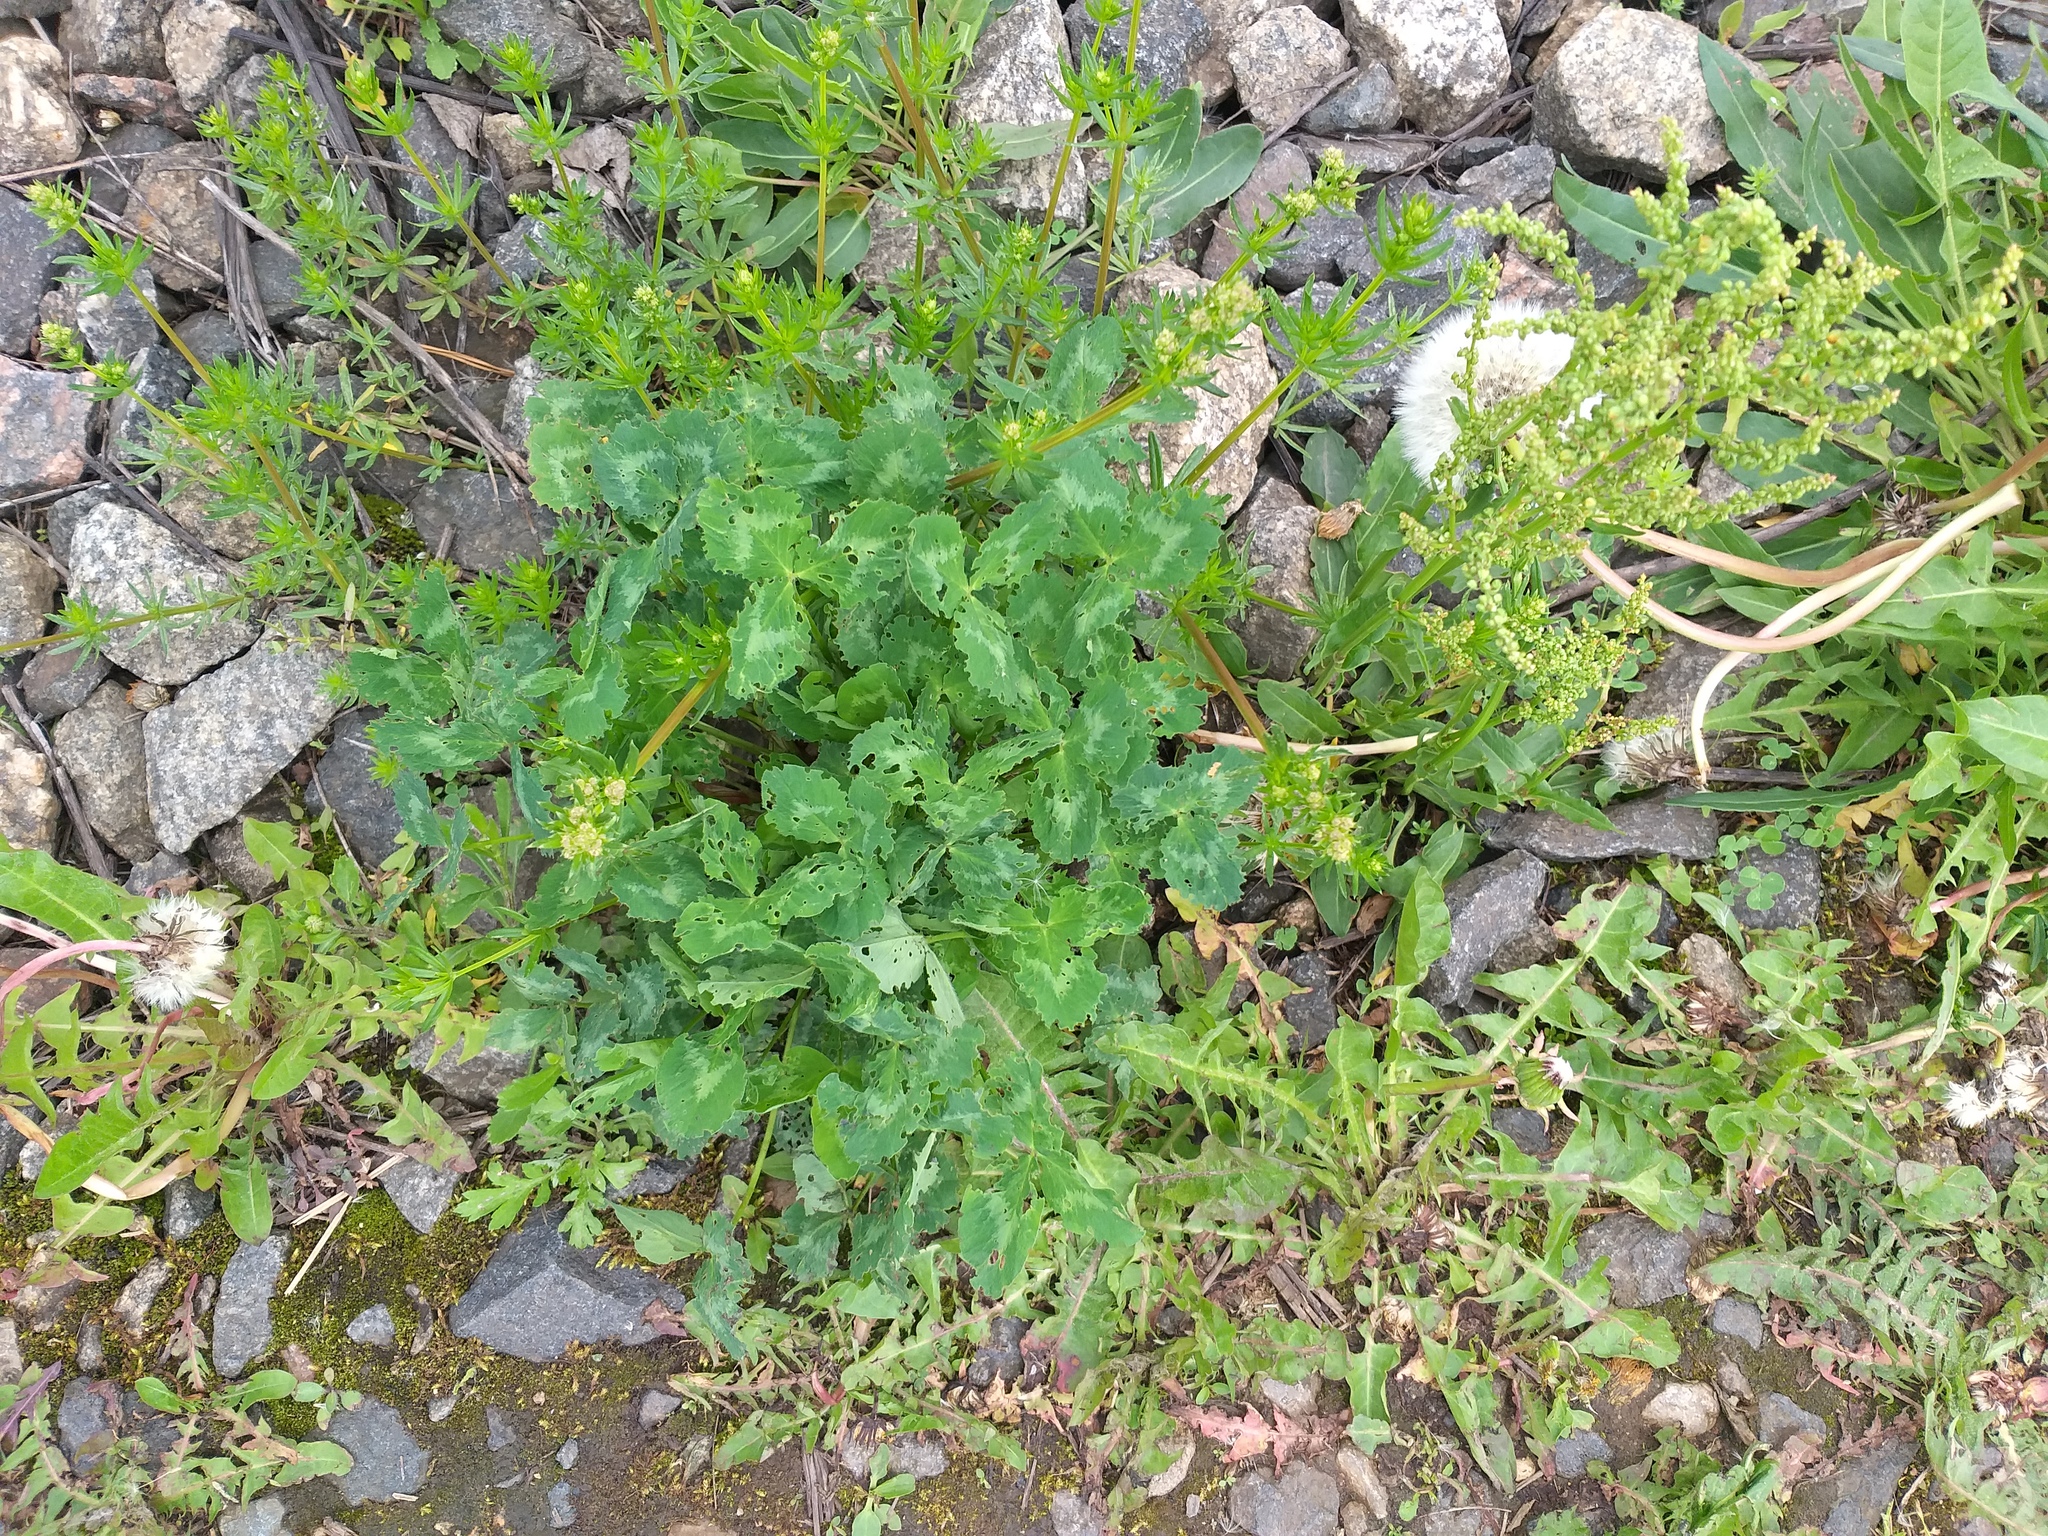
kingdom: Plantae
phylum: Tracheophyta
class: Magnoliopsida
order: Fabales
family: Fabaceae
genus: Trifolium
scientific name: Trifolium pratense
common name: Red clover
